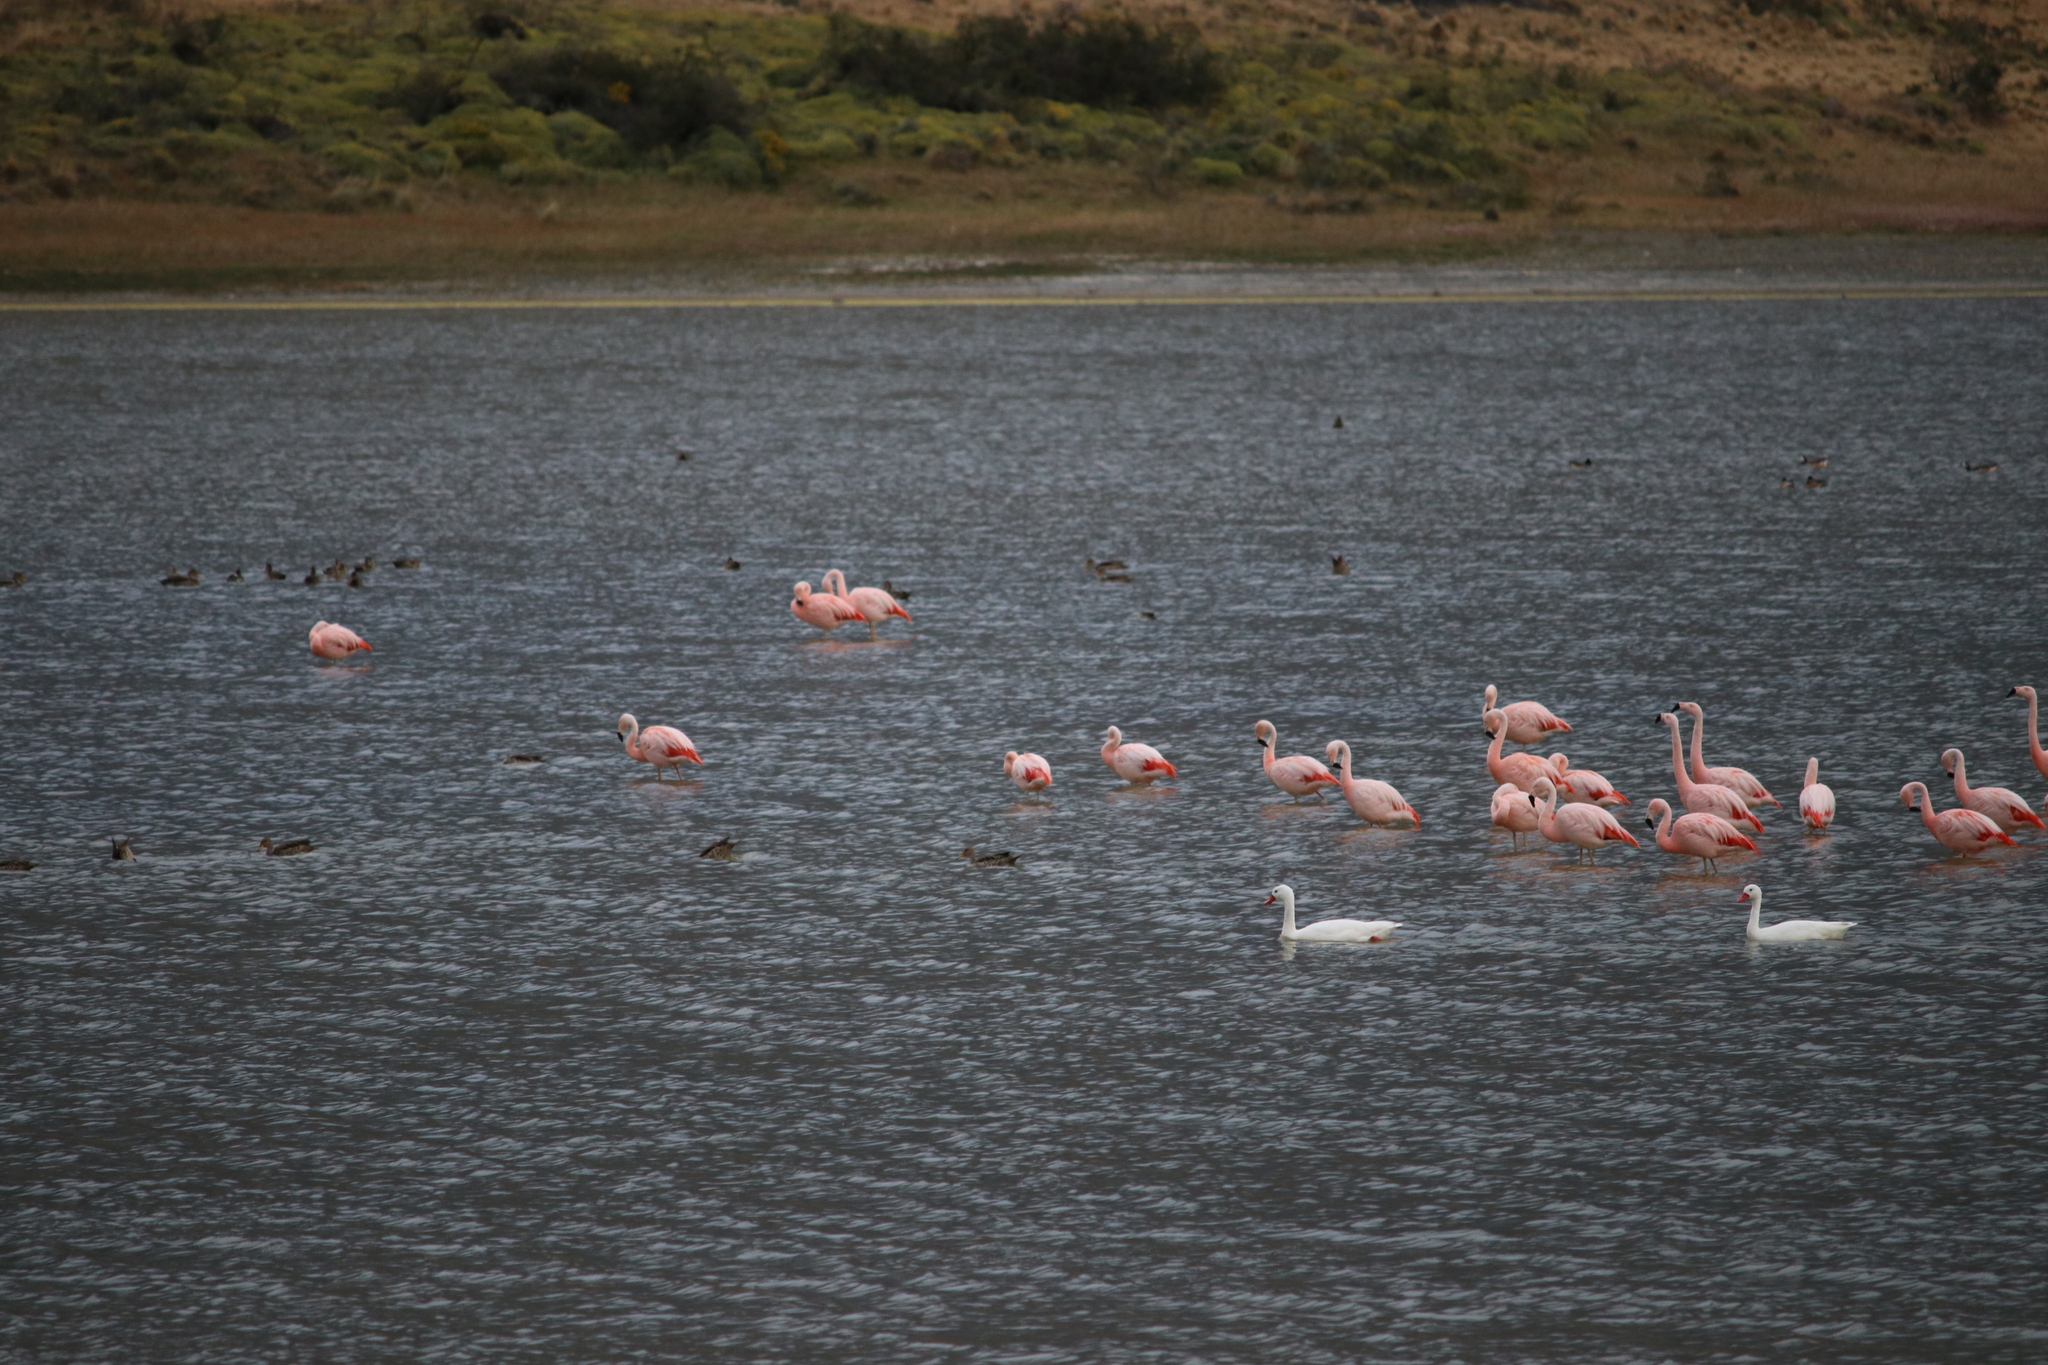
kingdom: Animalia
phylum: Chordata
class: Aves
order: Phoenicopteriformes
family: Phoenicopteridae
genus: Phoenicopterus
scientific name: Phoenicopterus chilensis
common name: Chilean flamingo
